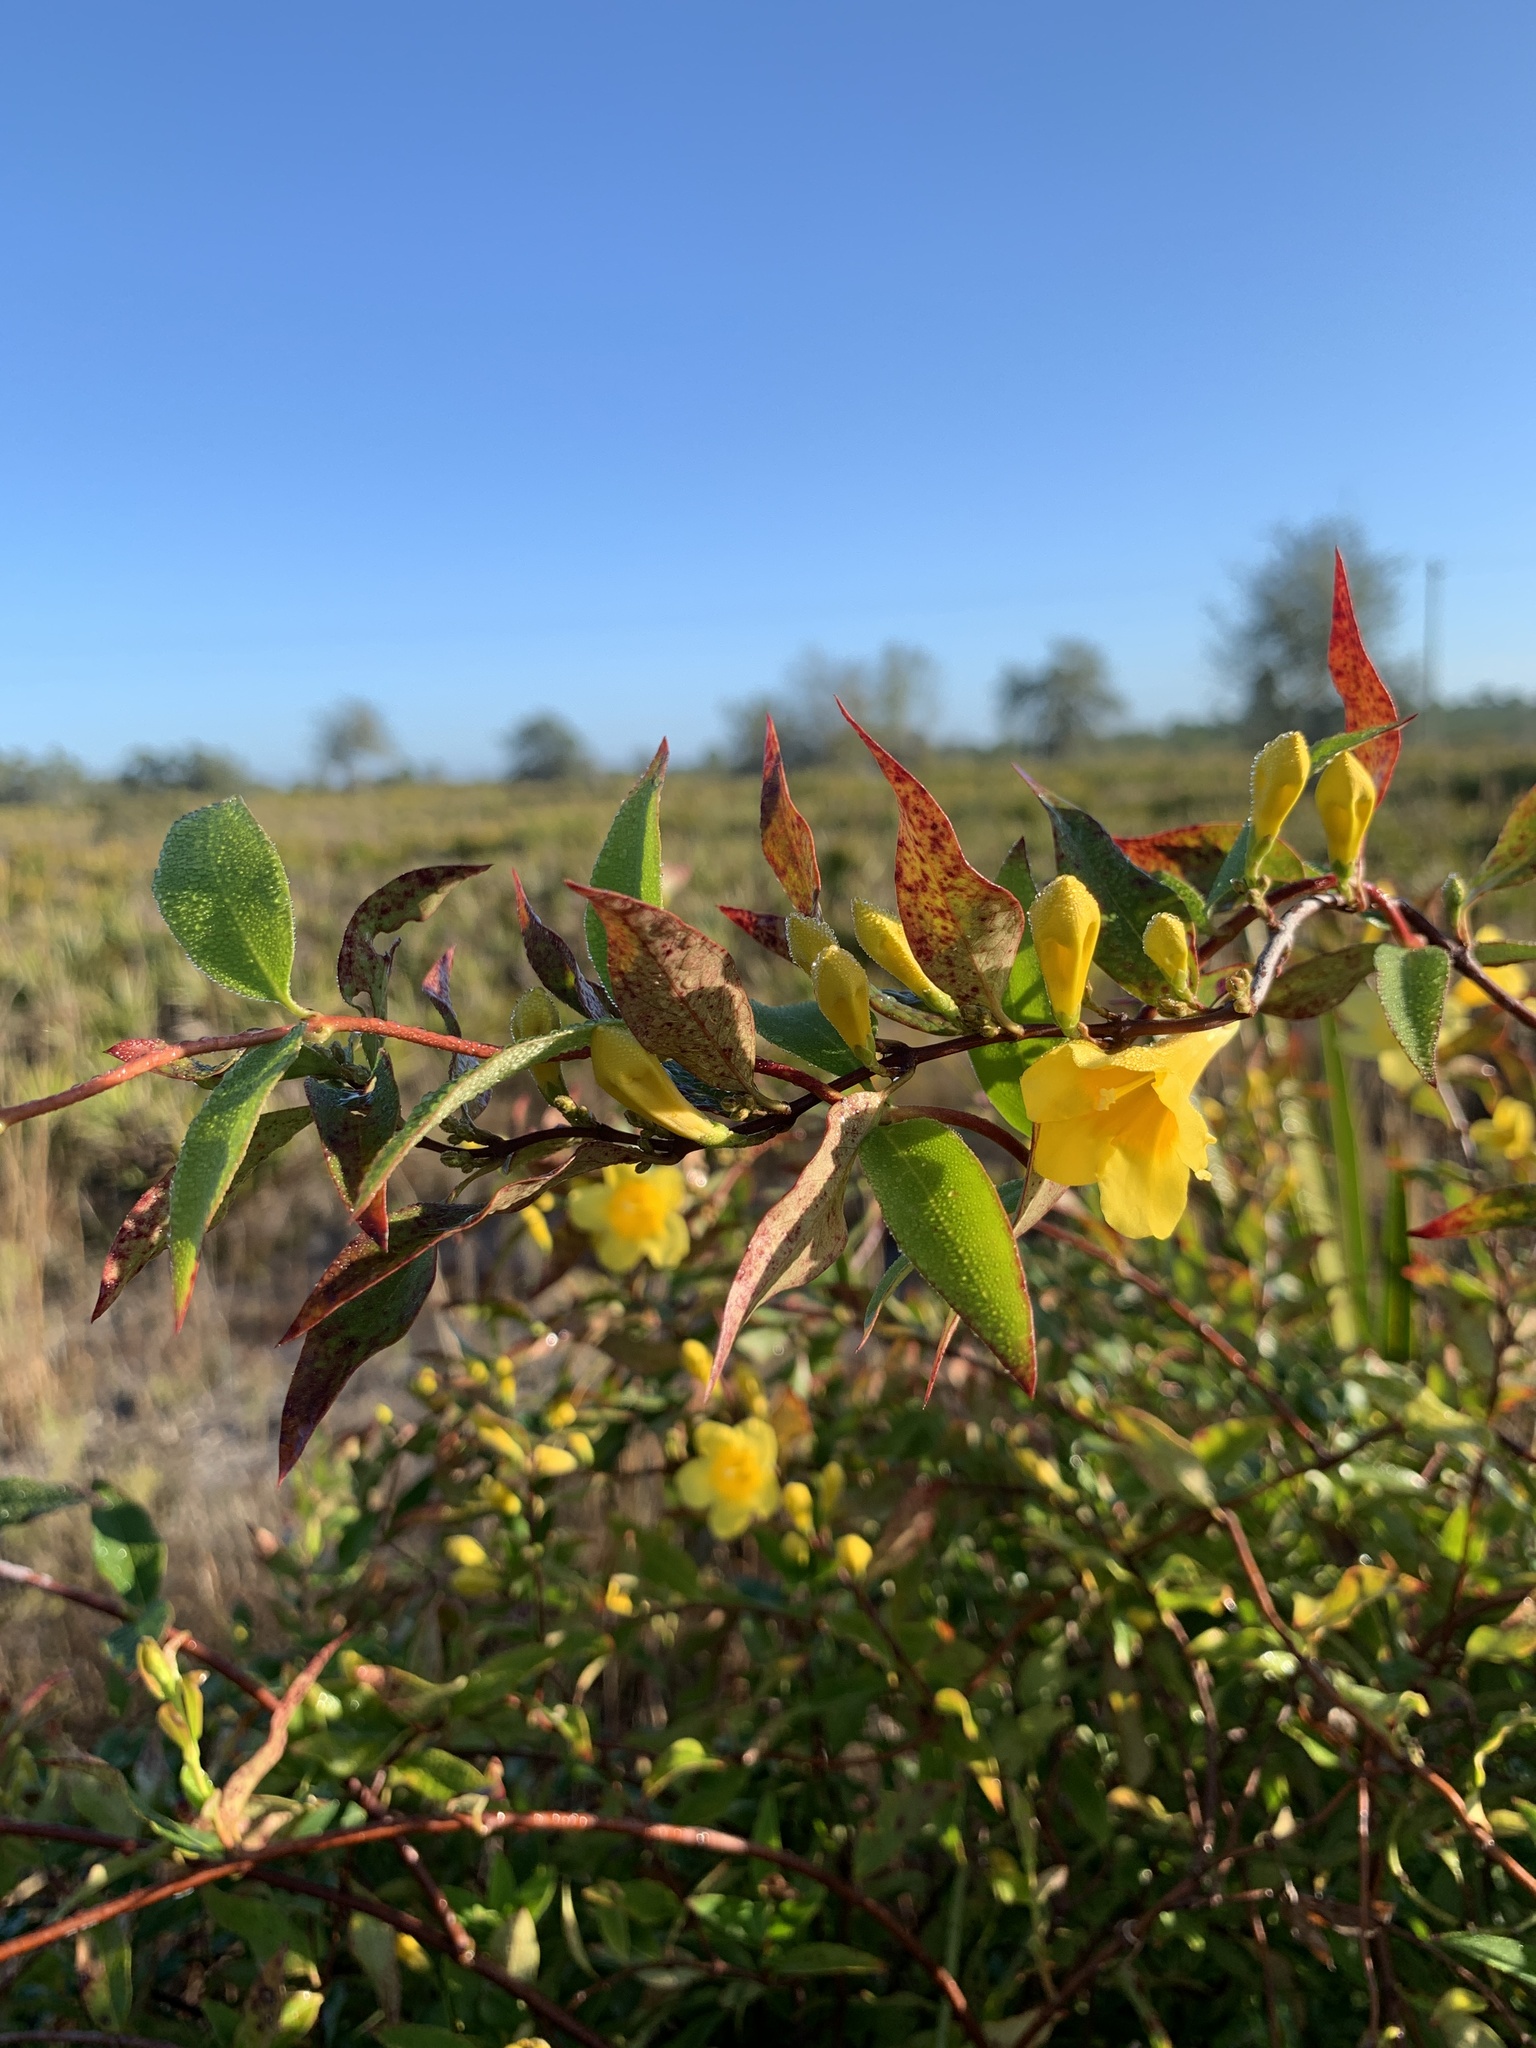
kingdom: Plantae
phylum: Tracheophyta
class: Magnoliopsida
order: Gentianales
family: Gelsemiaceae
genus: Gelsemium
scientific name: Gelsemium sempervirens
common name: Carolina-jasmine
